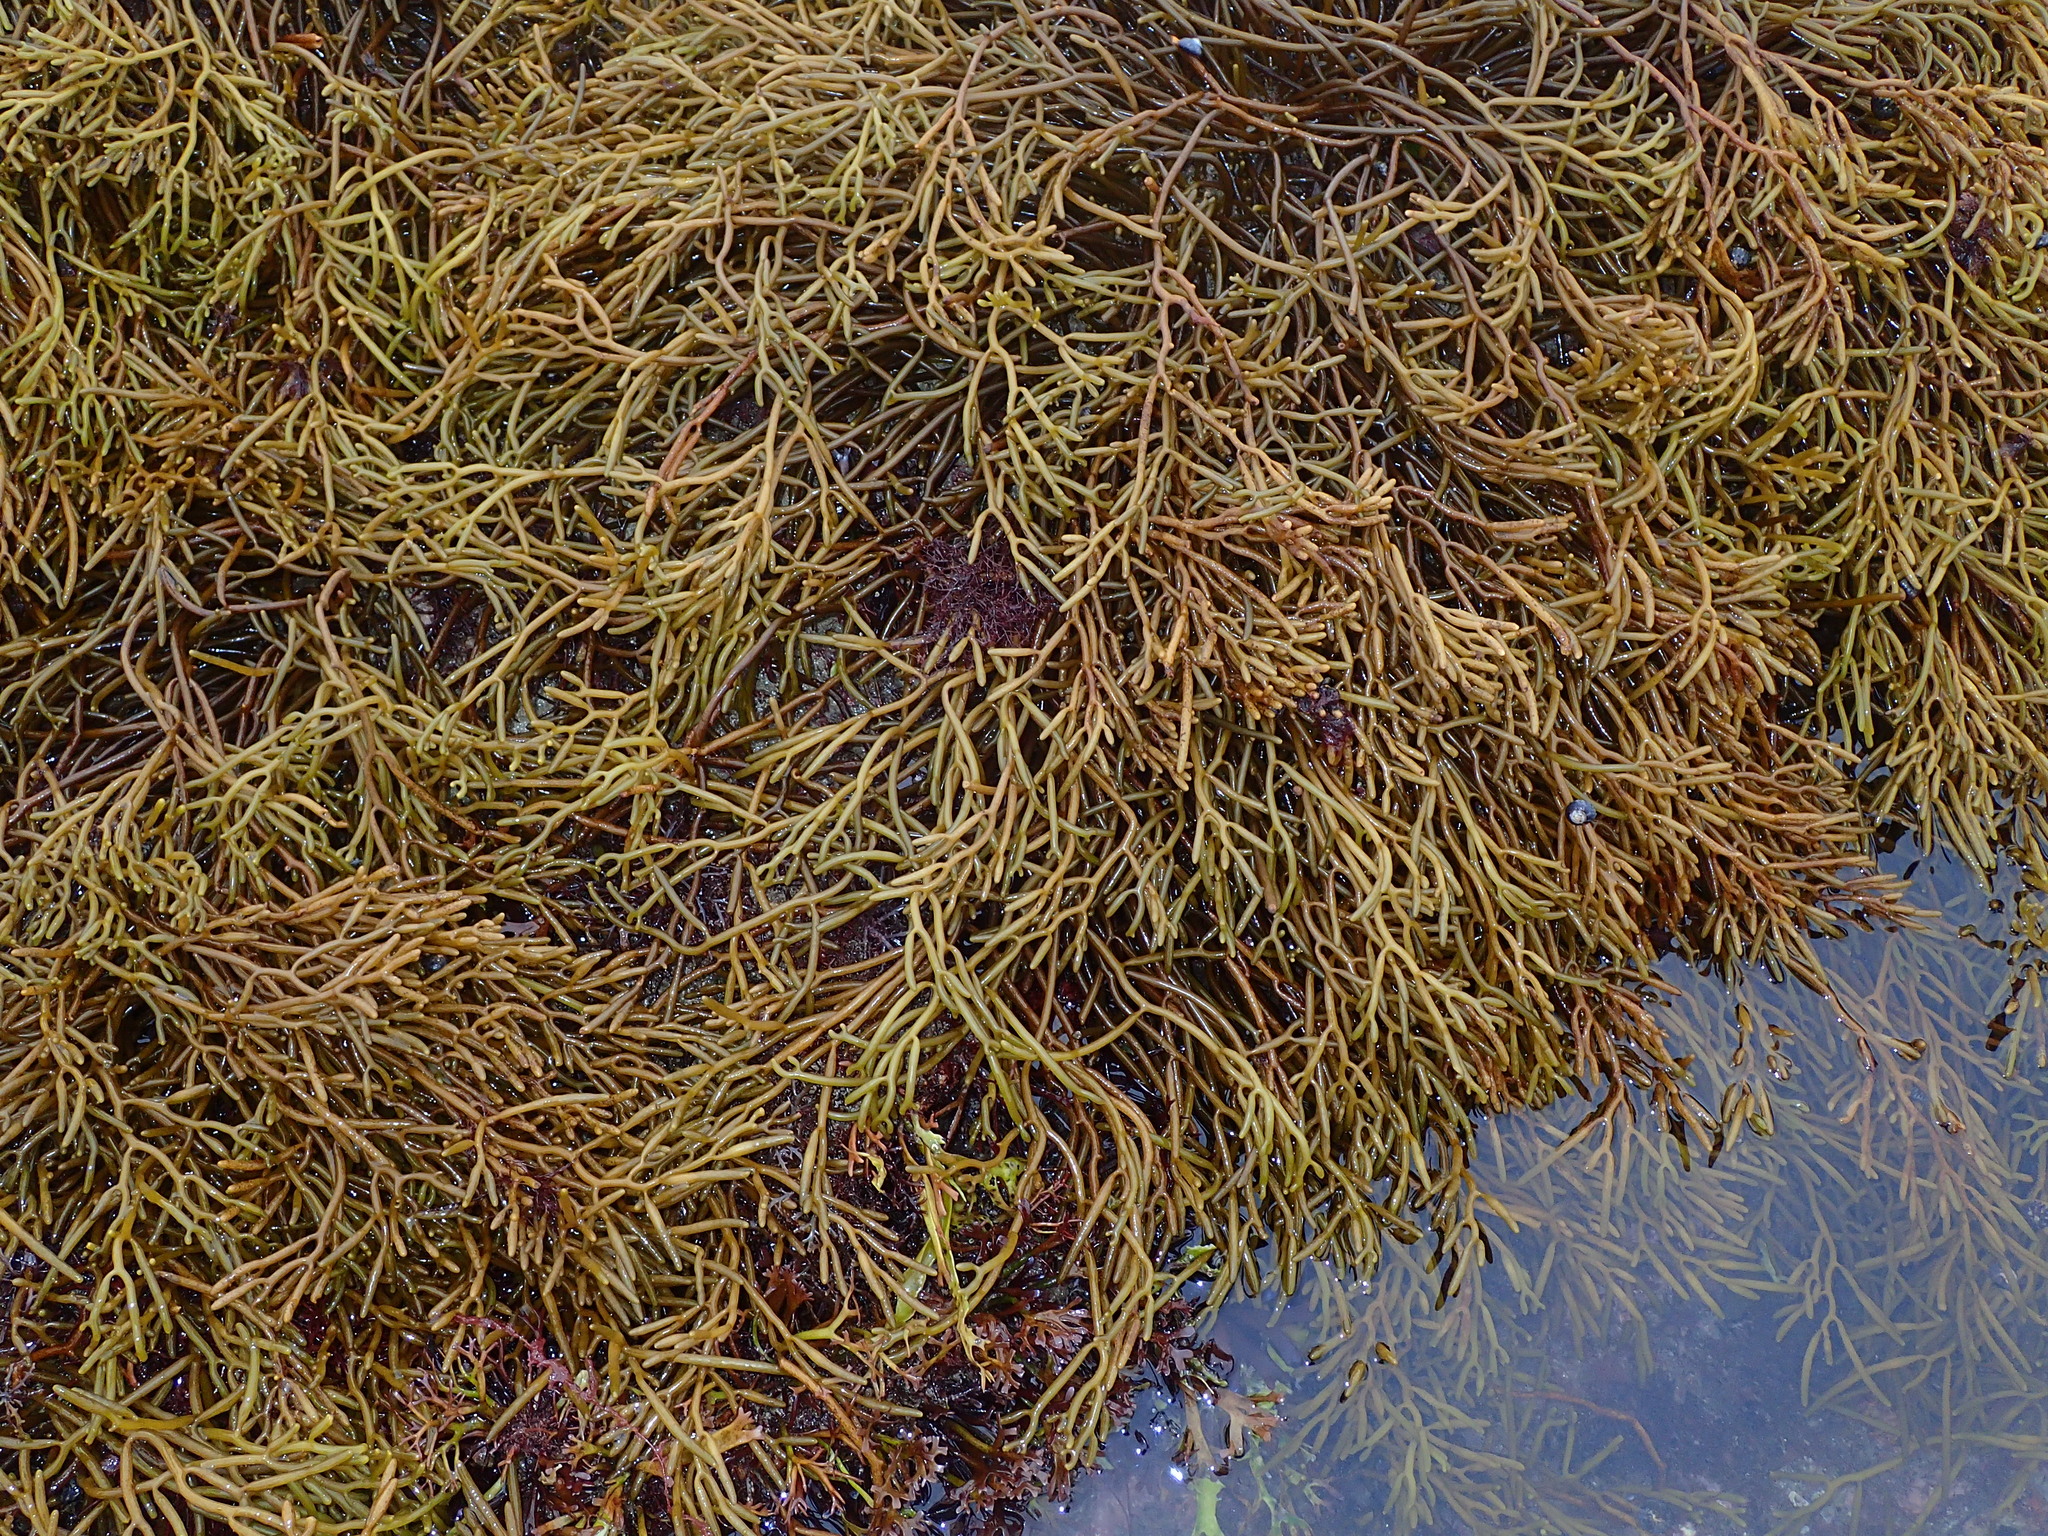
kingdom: Chromista
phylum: Ochrophyta
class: Phaeophyceae
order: Fucales
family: Sargassaceae
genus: Bifurcaria
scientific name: Bifurcaria bifurcata
